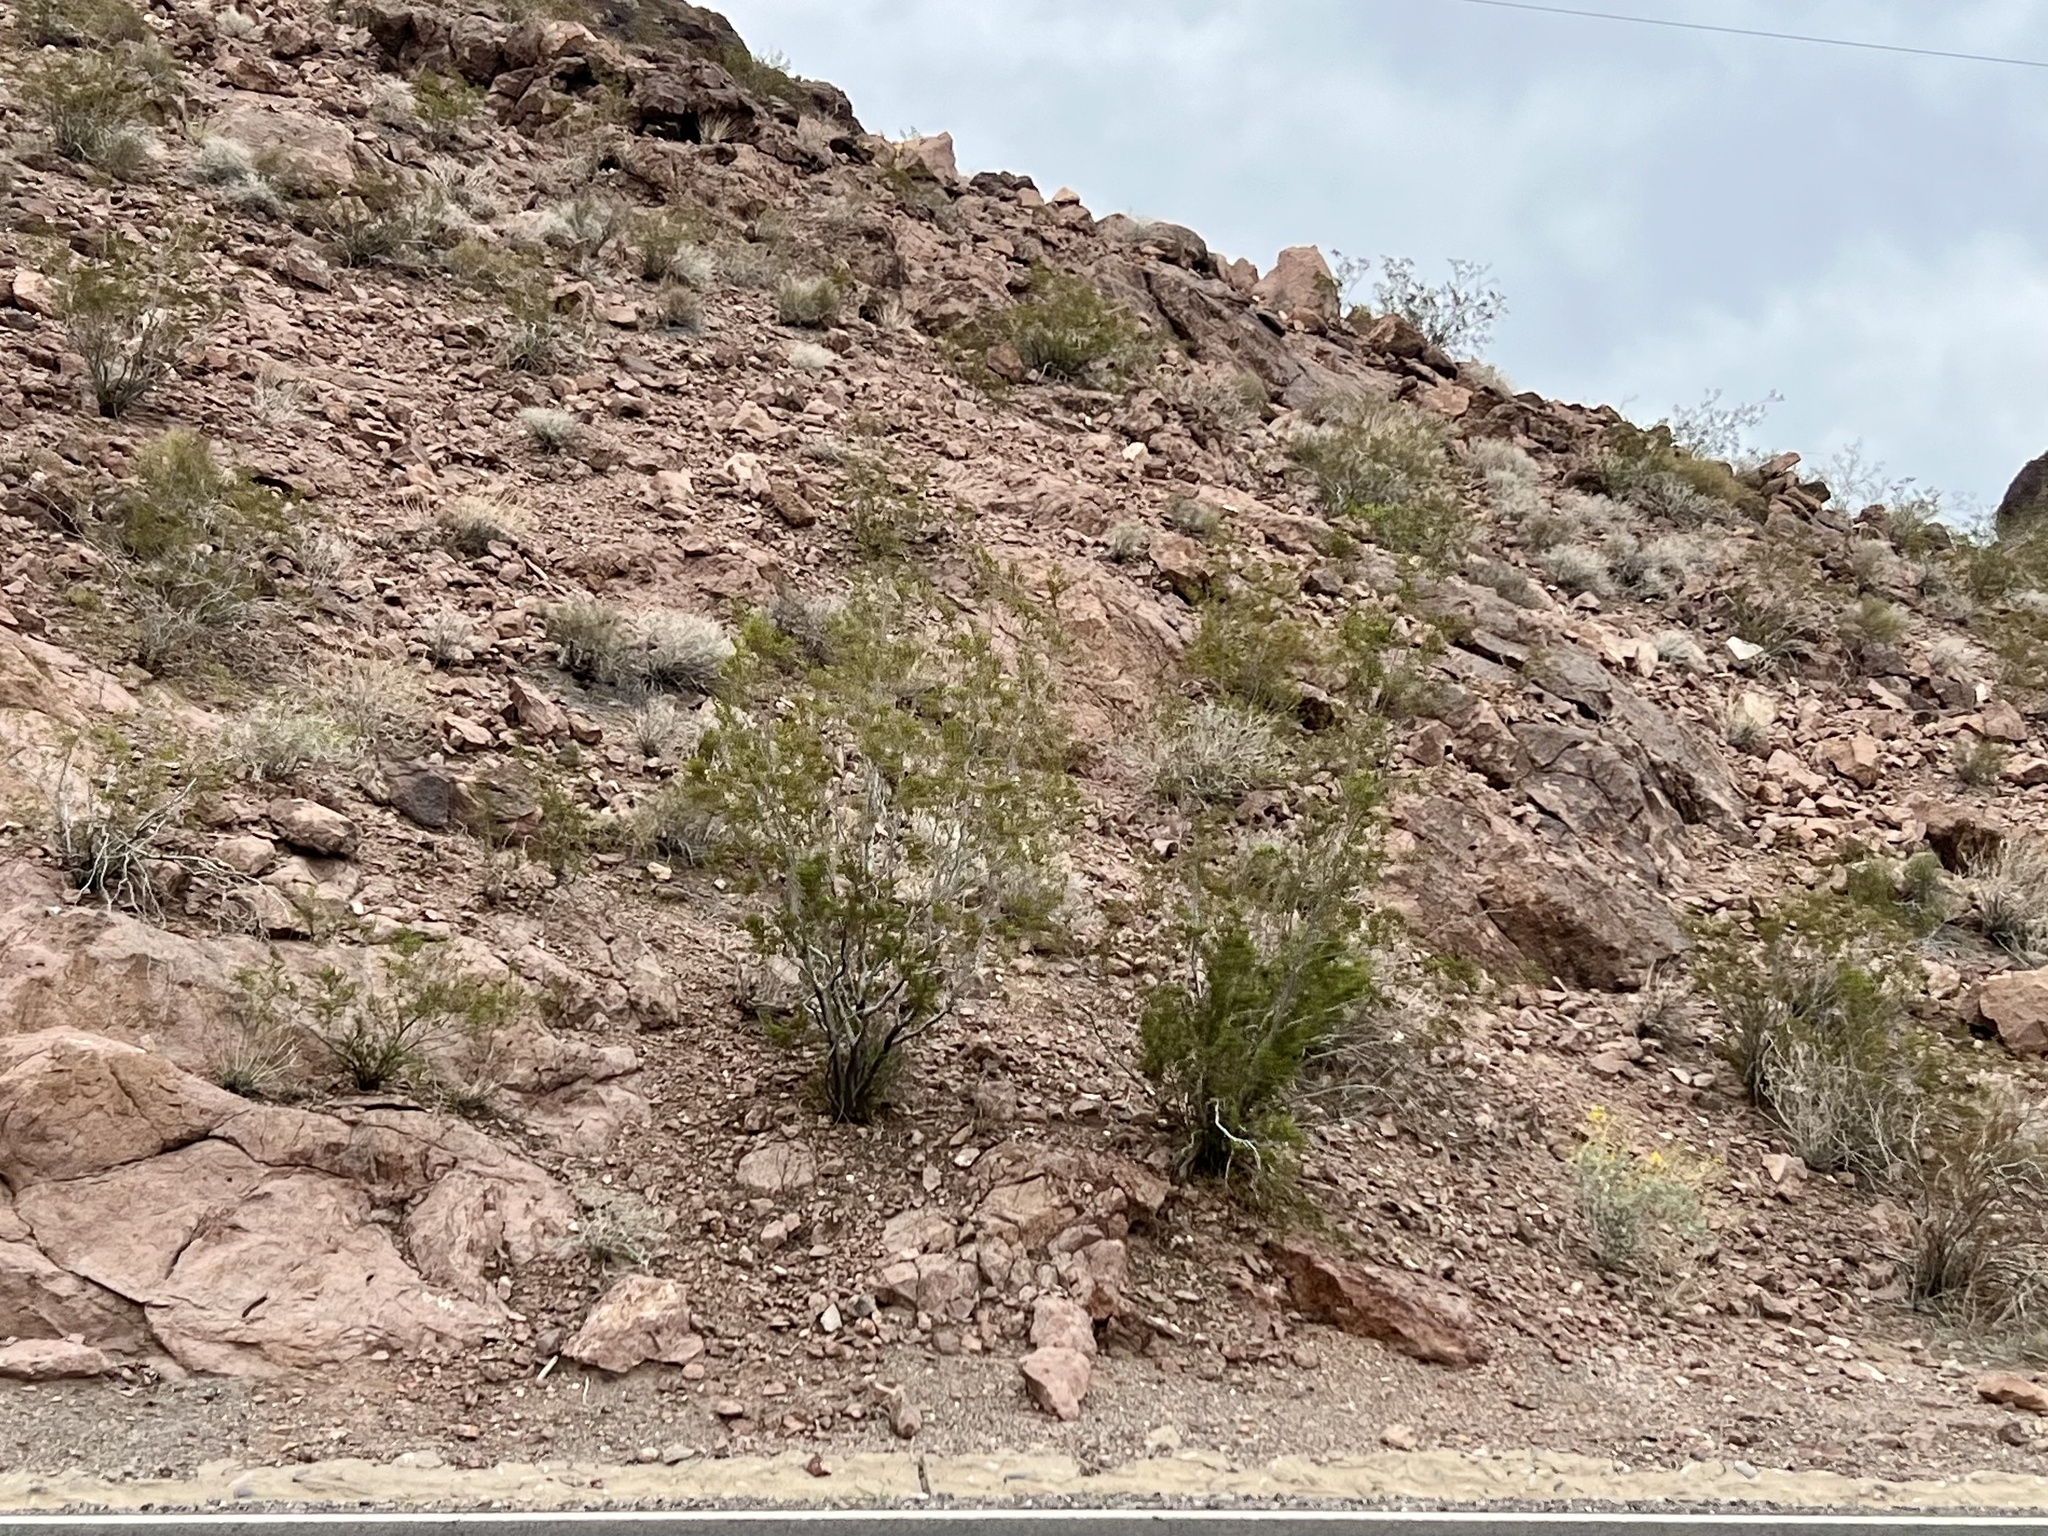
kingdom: Plantae
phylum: Tracheophyta
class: Magnoliopsida
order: Zygophyllales
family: Zygophyllaceae
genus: Larrea
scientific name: Larrea tridentata
